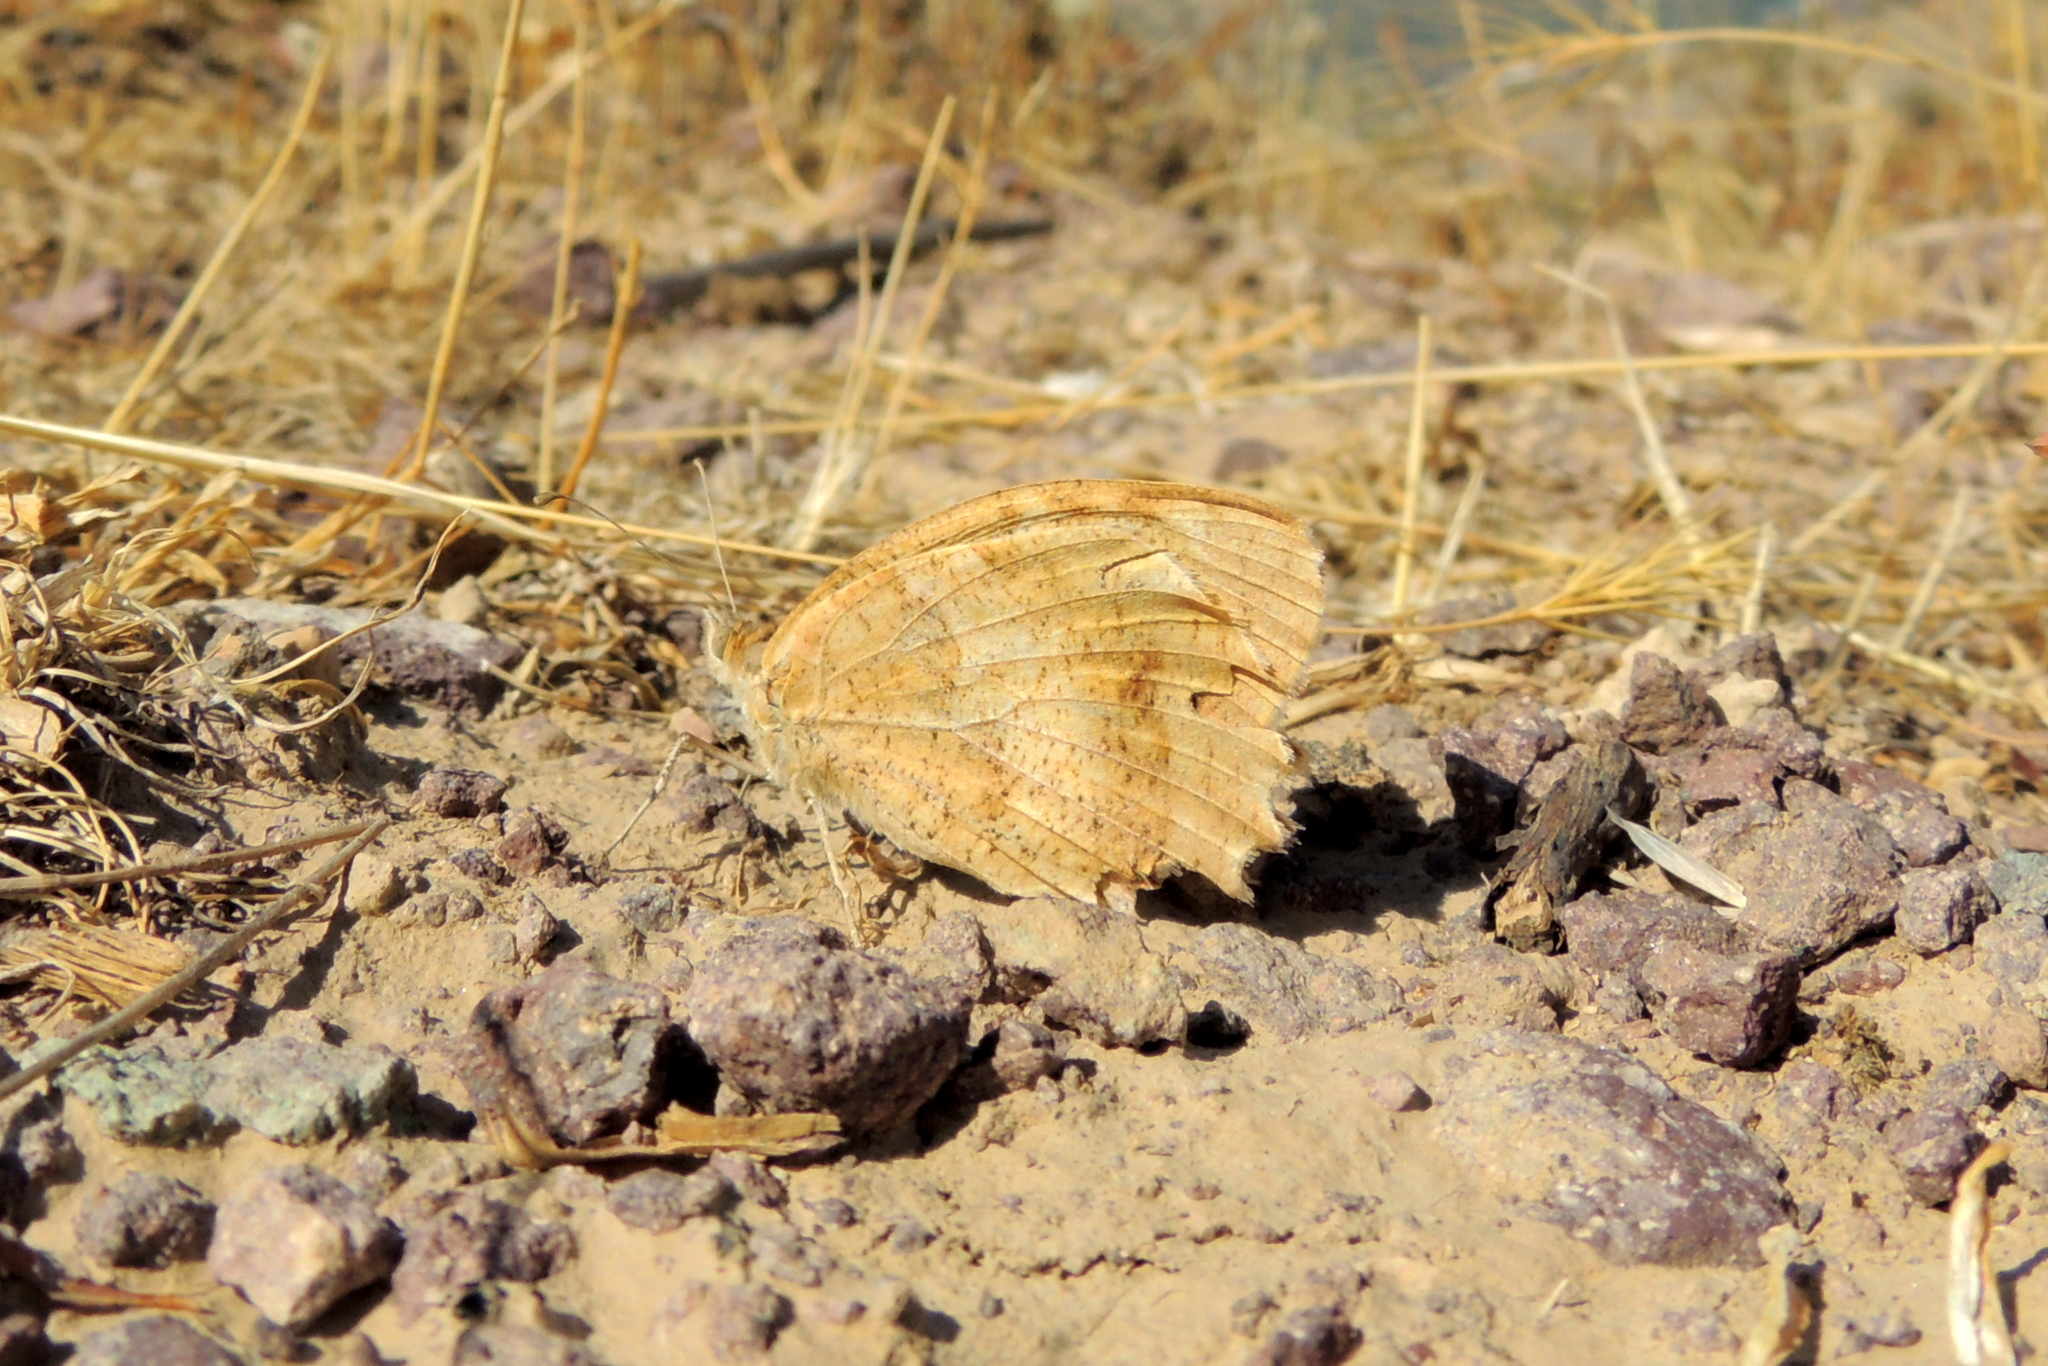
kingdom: Animalia
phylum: Arthropoda
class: Insecta
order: Lepidoptera
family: Nymphalidae
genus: Satyrus
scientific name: Satyrus briseis
